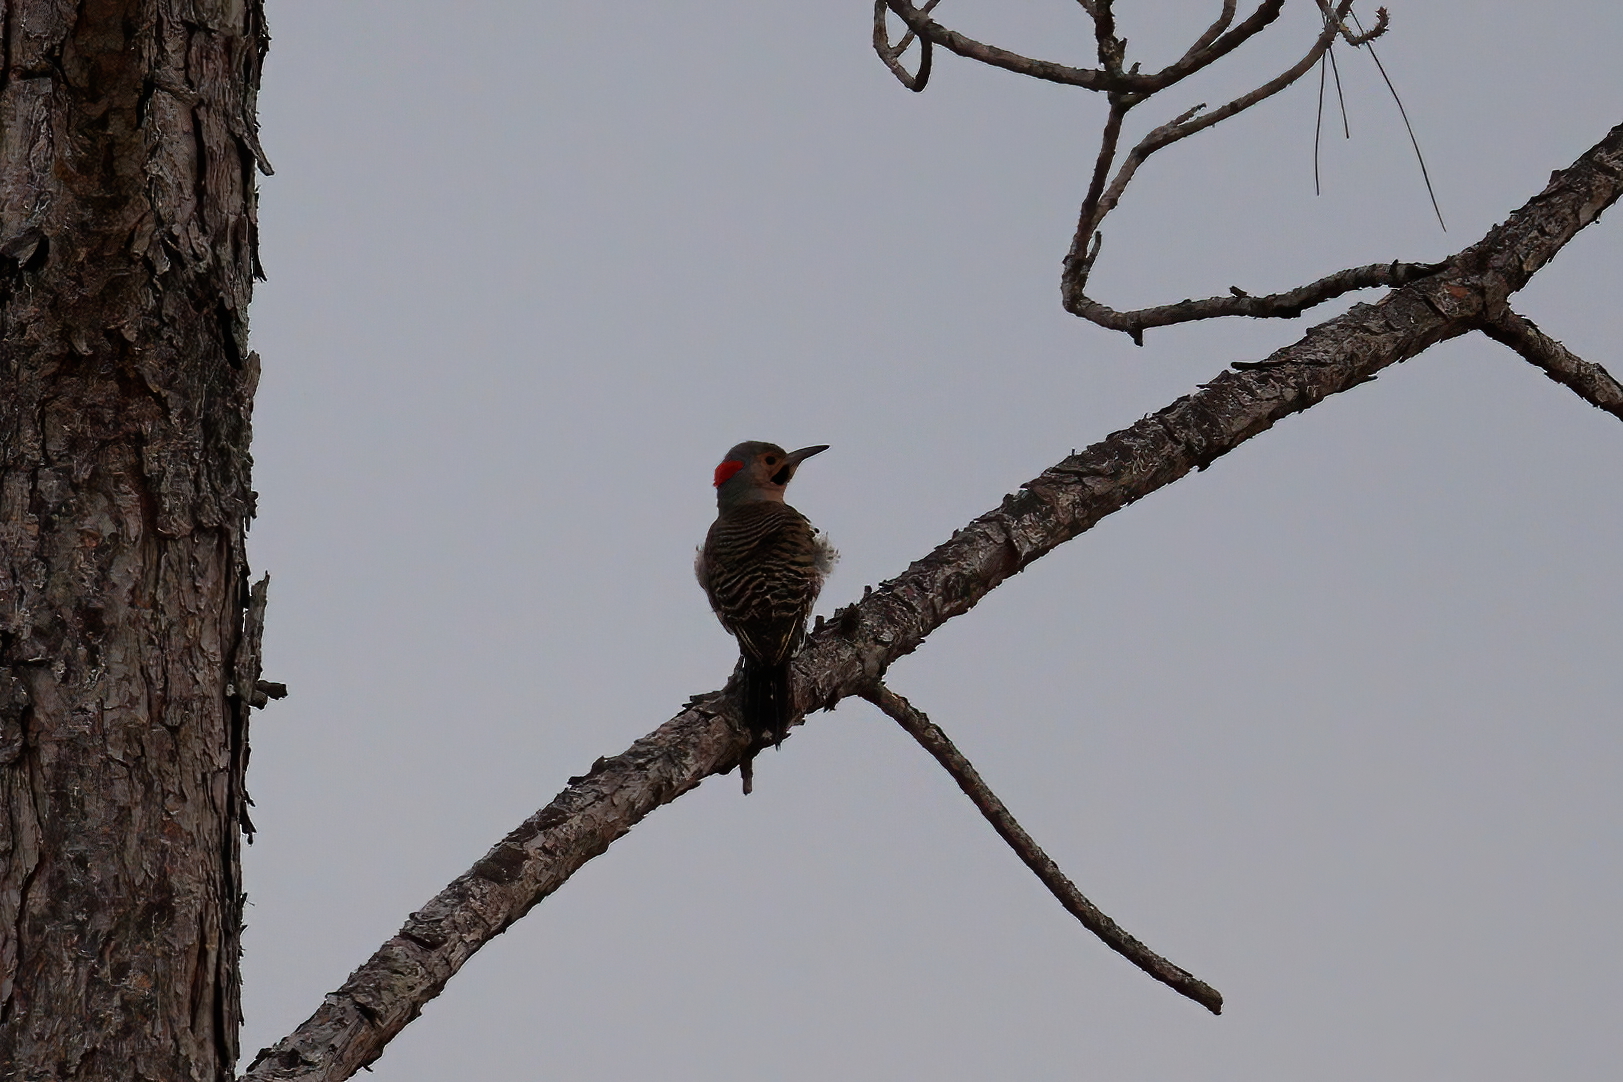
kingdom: Animalia
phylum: Chordata
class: Aves
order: Piciformes
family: Picidae
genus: Colaptes
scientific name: Colaptes auratus
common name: Northern flicker
